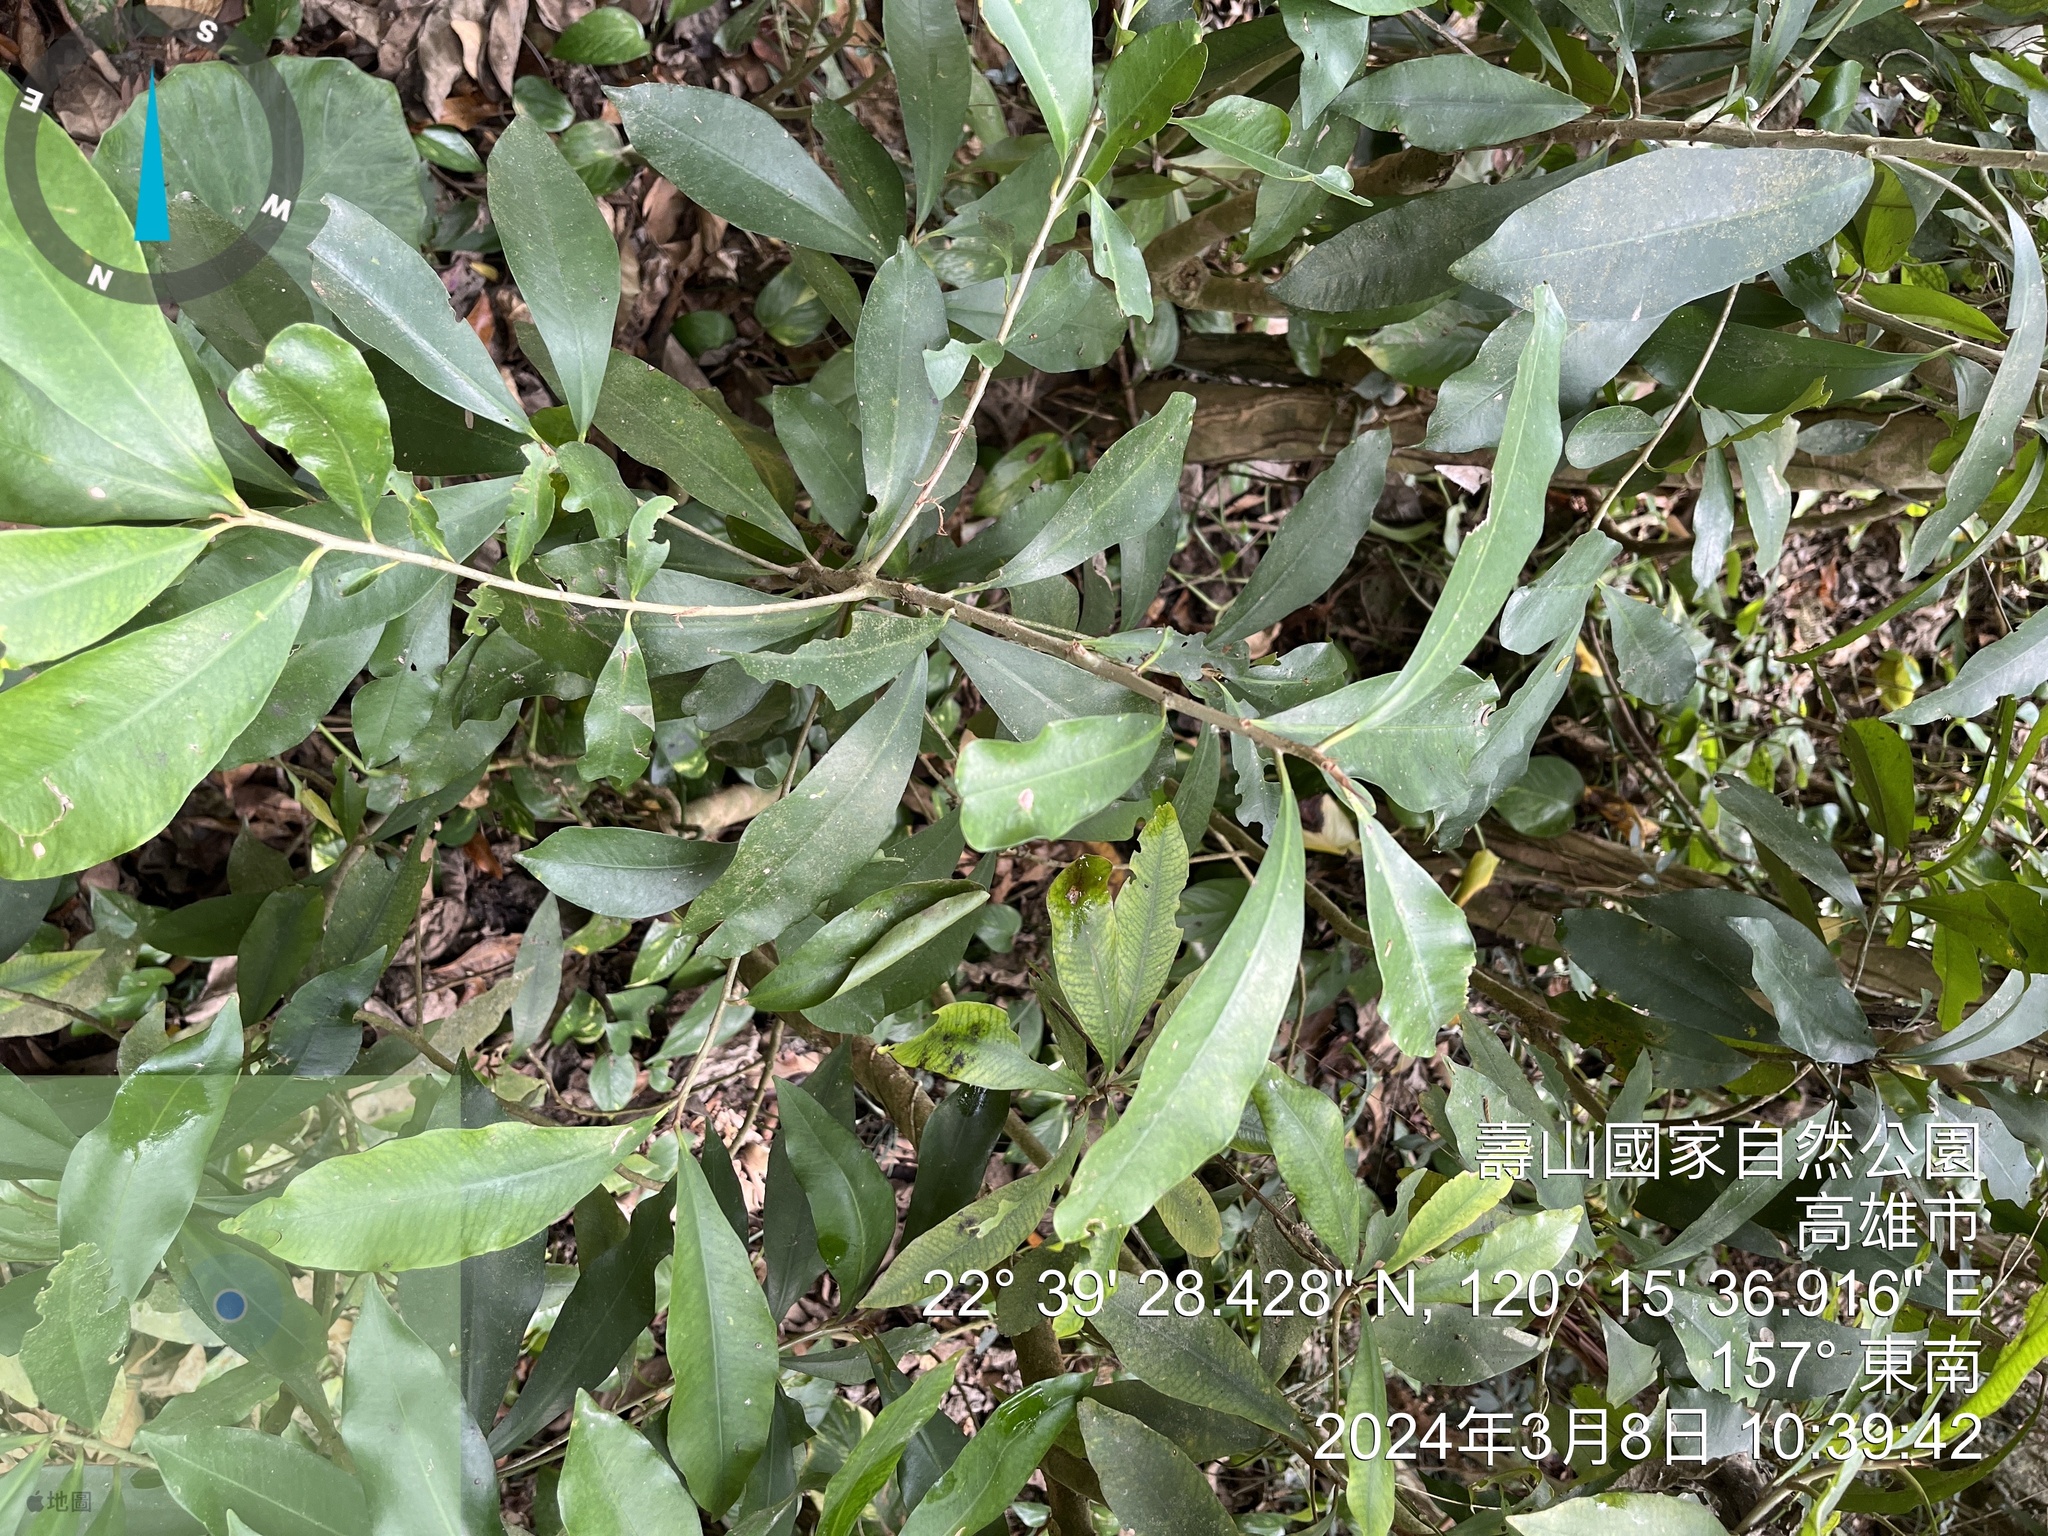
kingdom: Plantae
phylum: Tracheophyta
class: Magnoliopsida
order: Ericales
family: Primulaceae
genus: Ardisia
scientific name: Ardisia sieboldii
